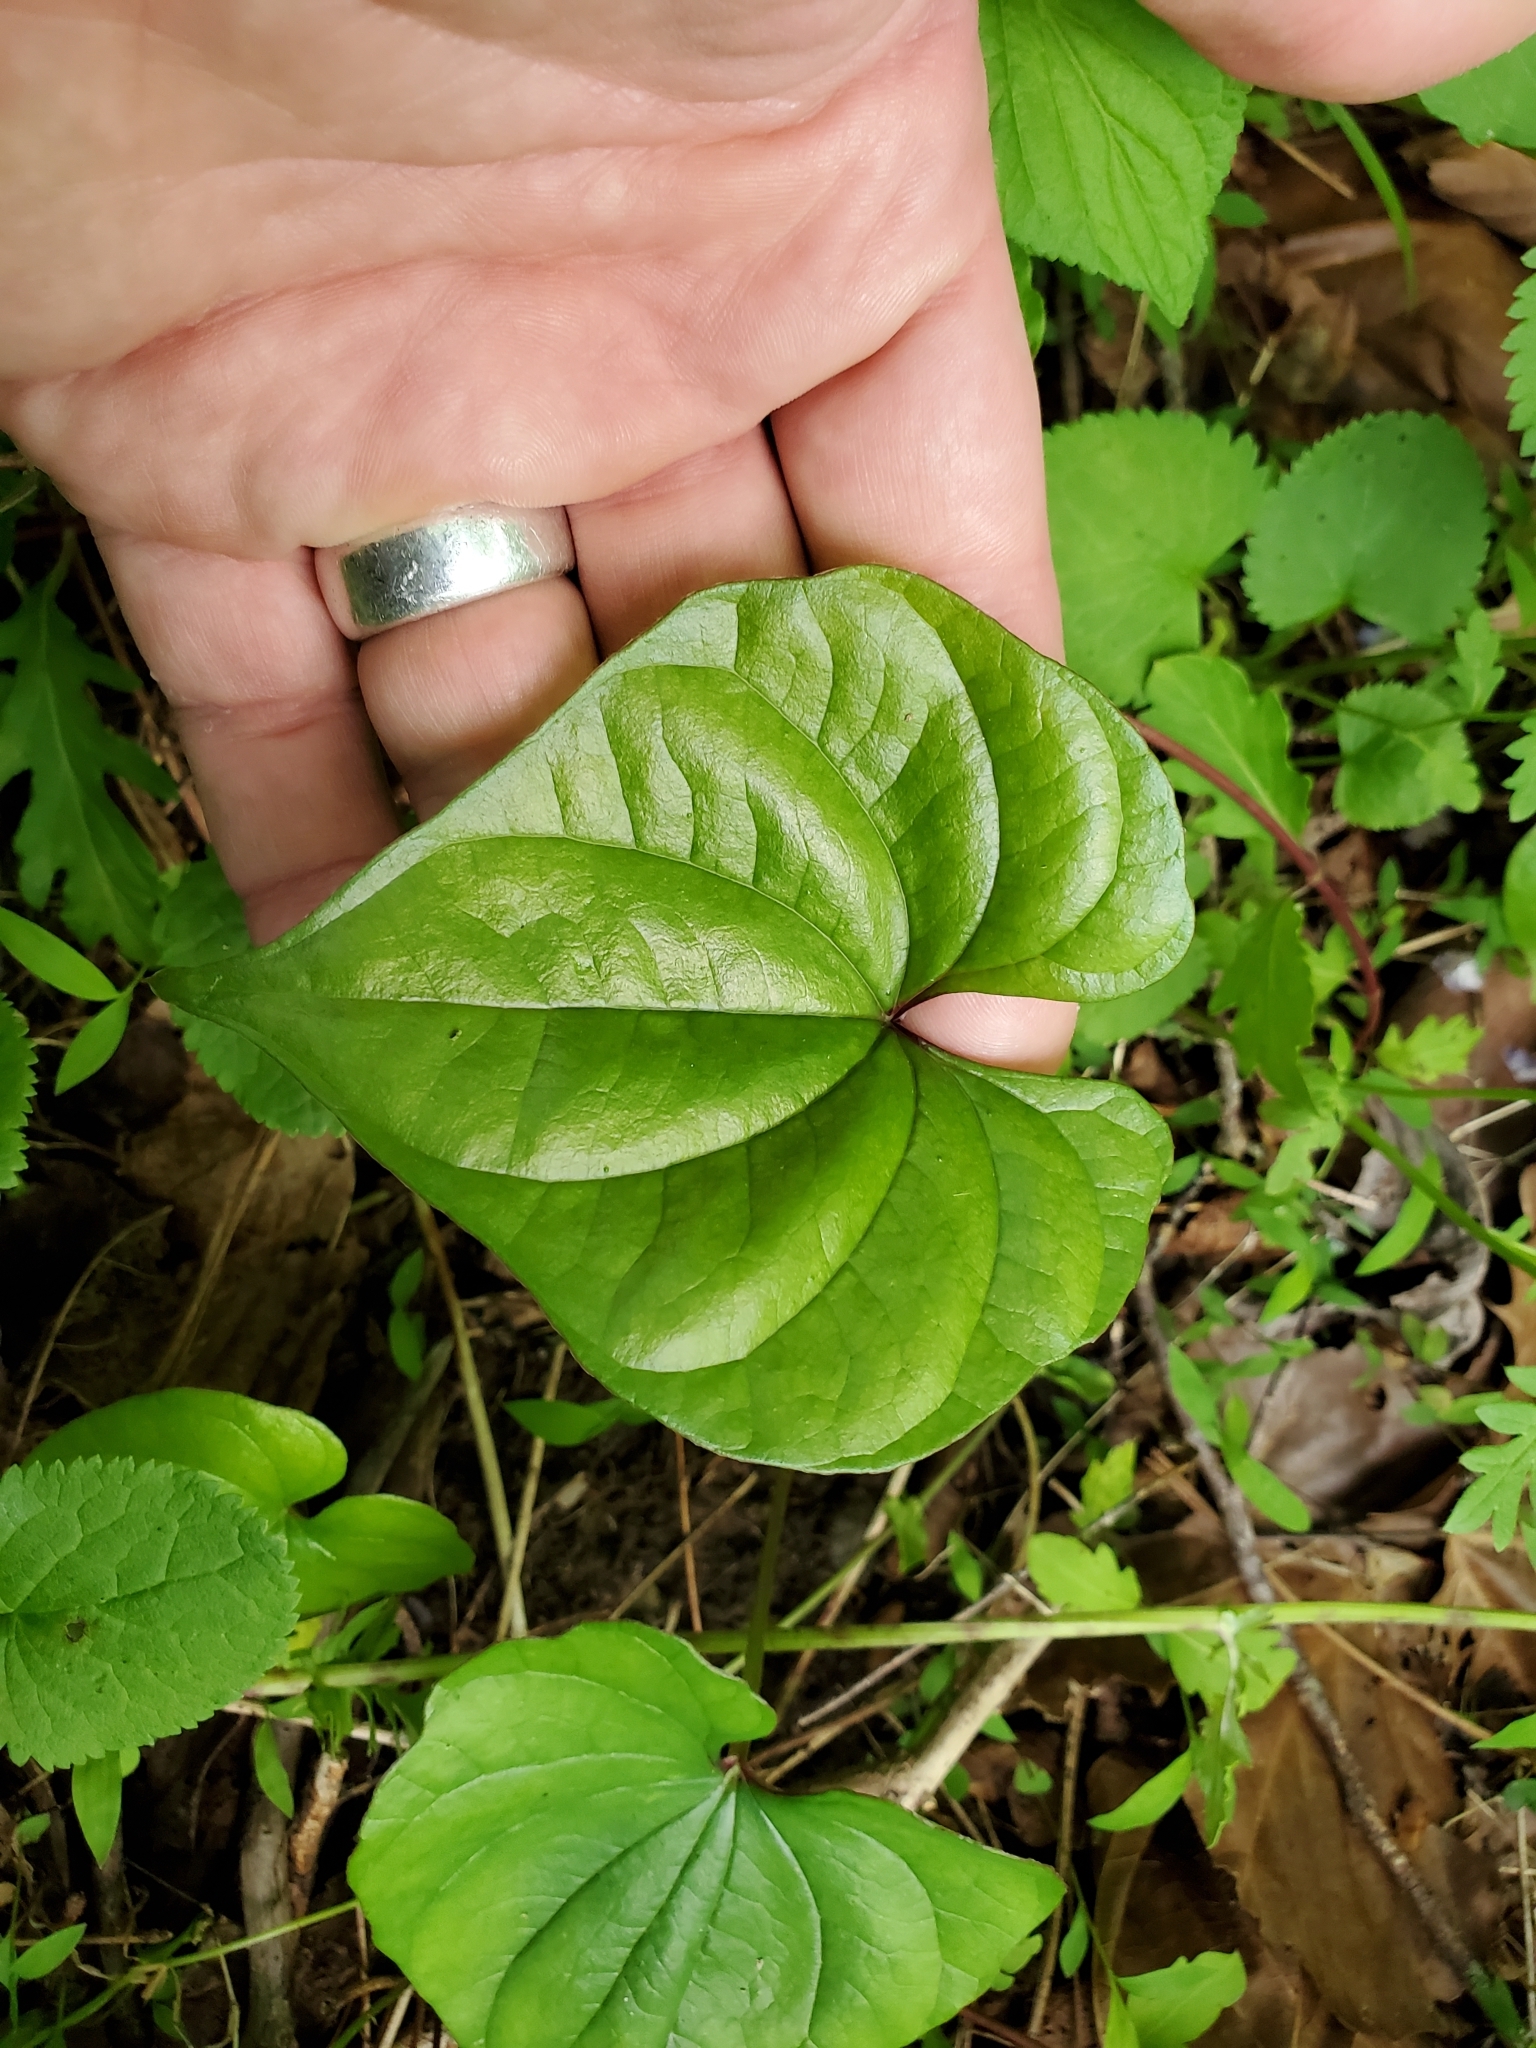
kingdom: Plantae
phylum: Tracheophyta
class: Liliopsida
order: Dioscoreales
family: Dioscoreaceae
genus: Dioscorea
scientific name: Dioscorea polystachya
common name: Chinese yam
